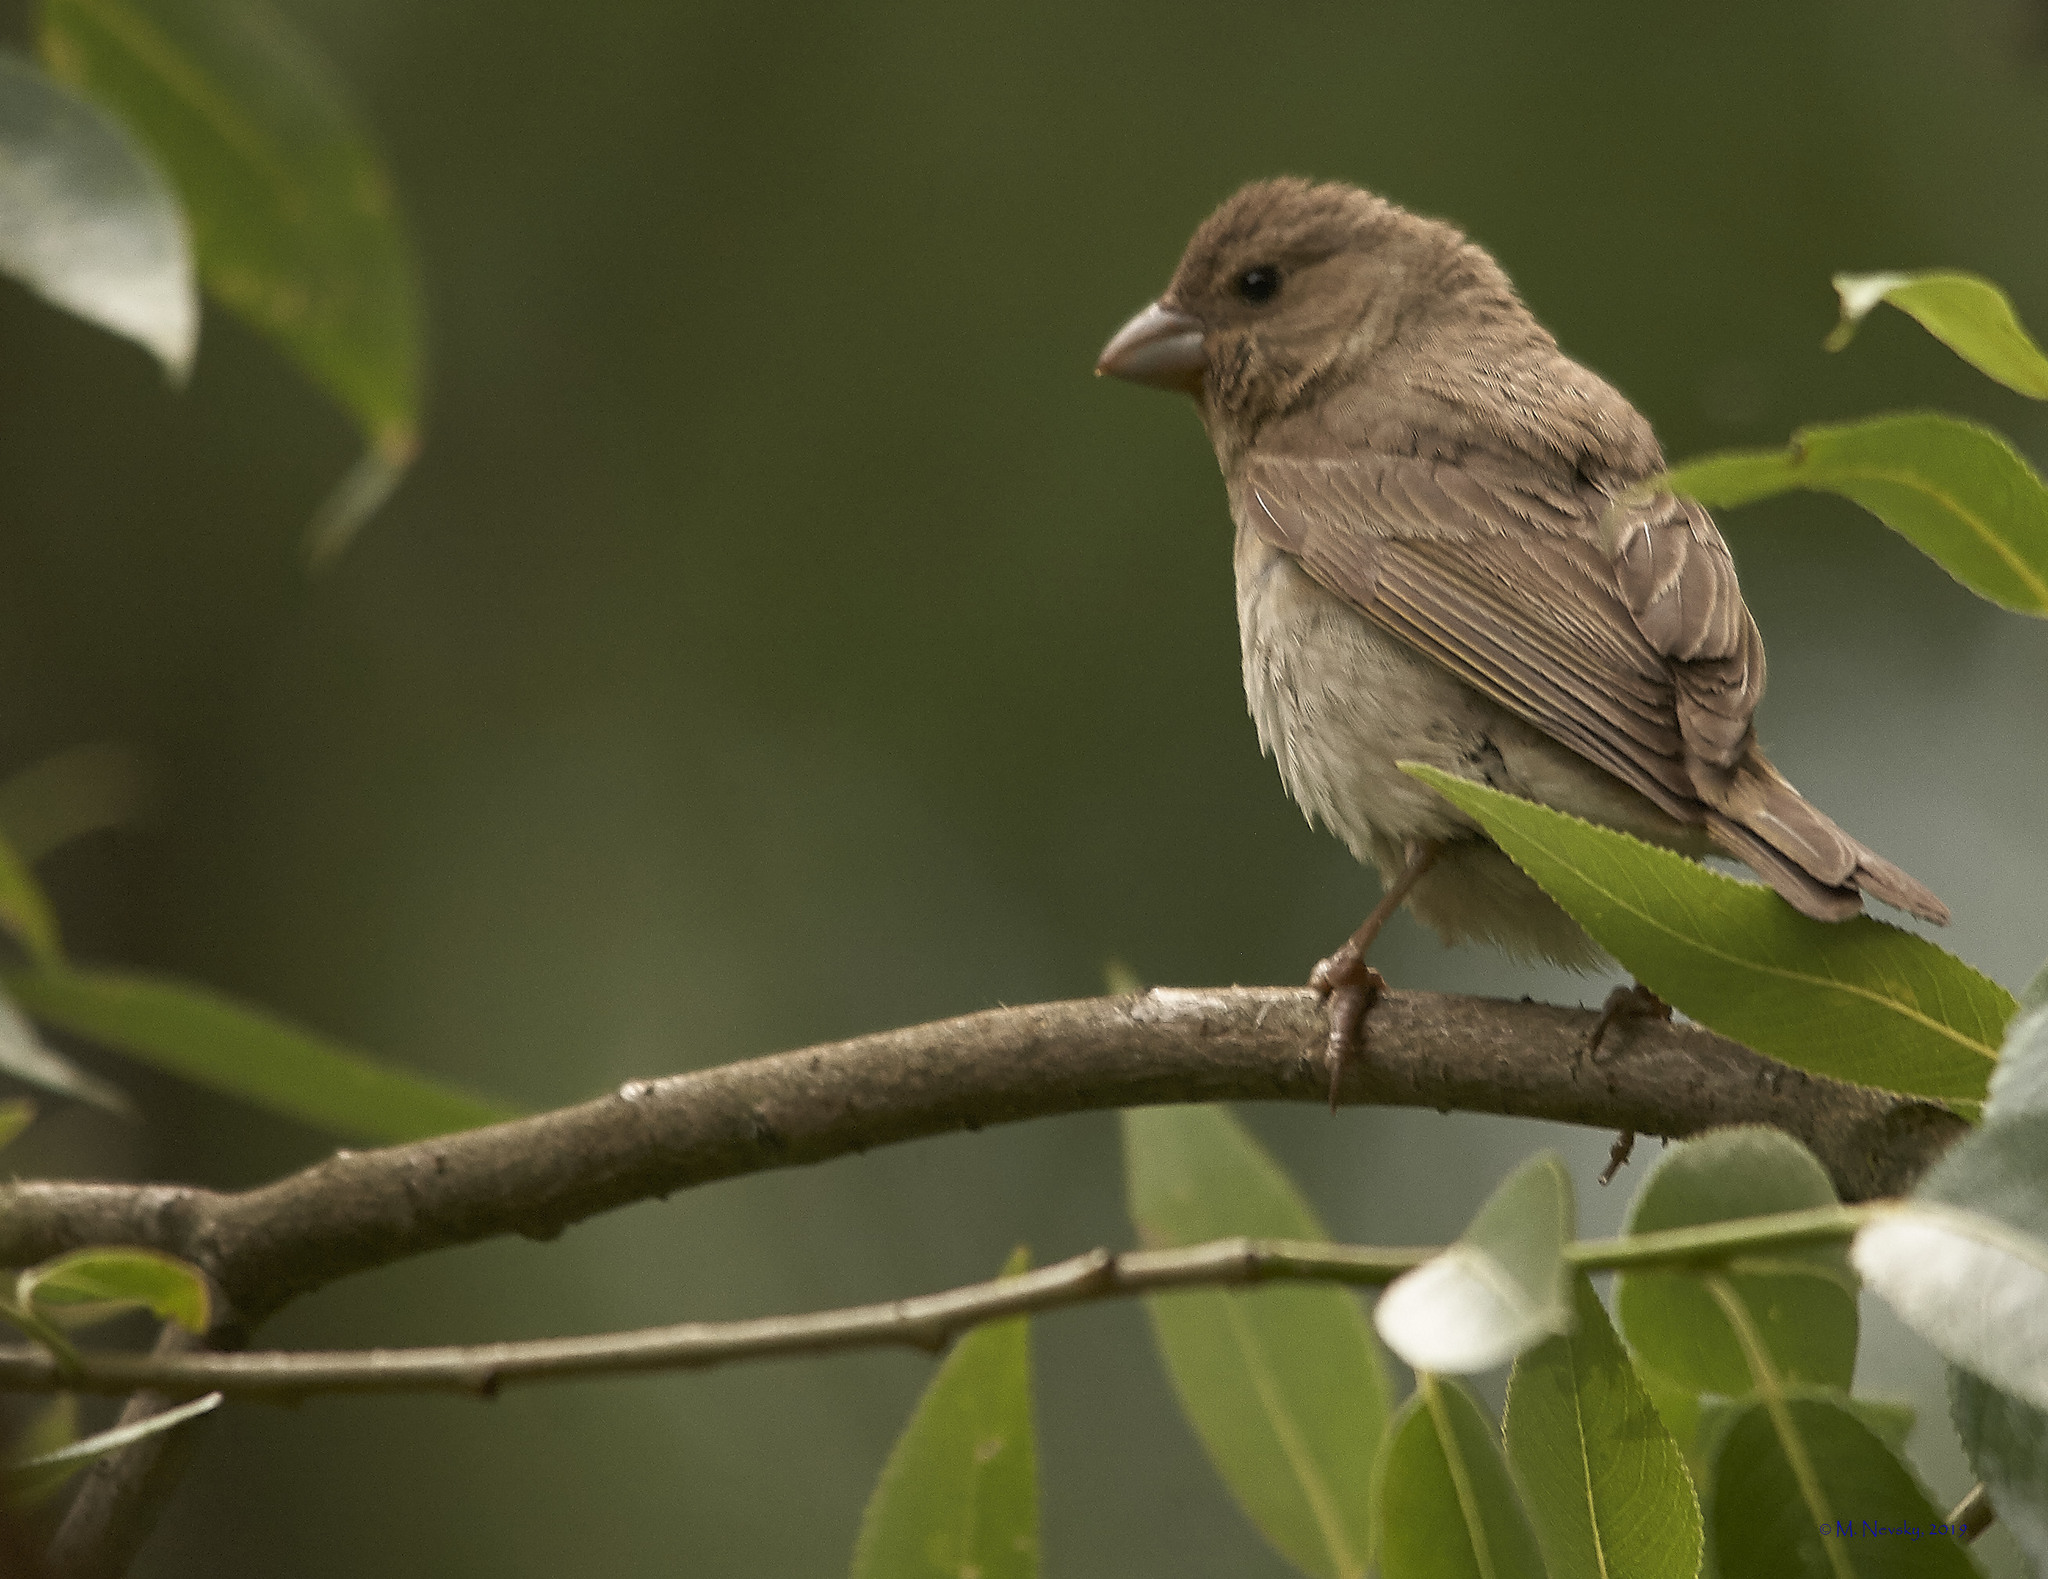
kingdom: Animalia
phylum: Chordata
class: Aves
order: Passeriformes
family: Fringillidae
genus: Carpodacus
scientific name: Carpodacus erythrinus
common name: Common rosefinch
